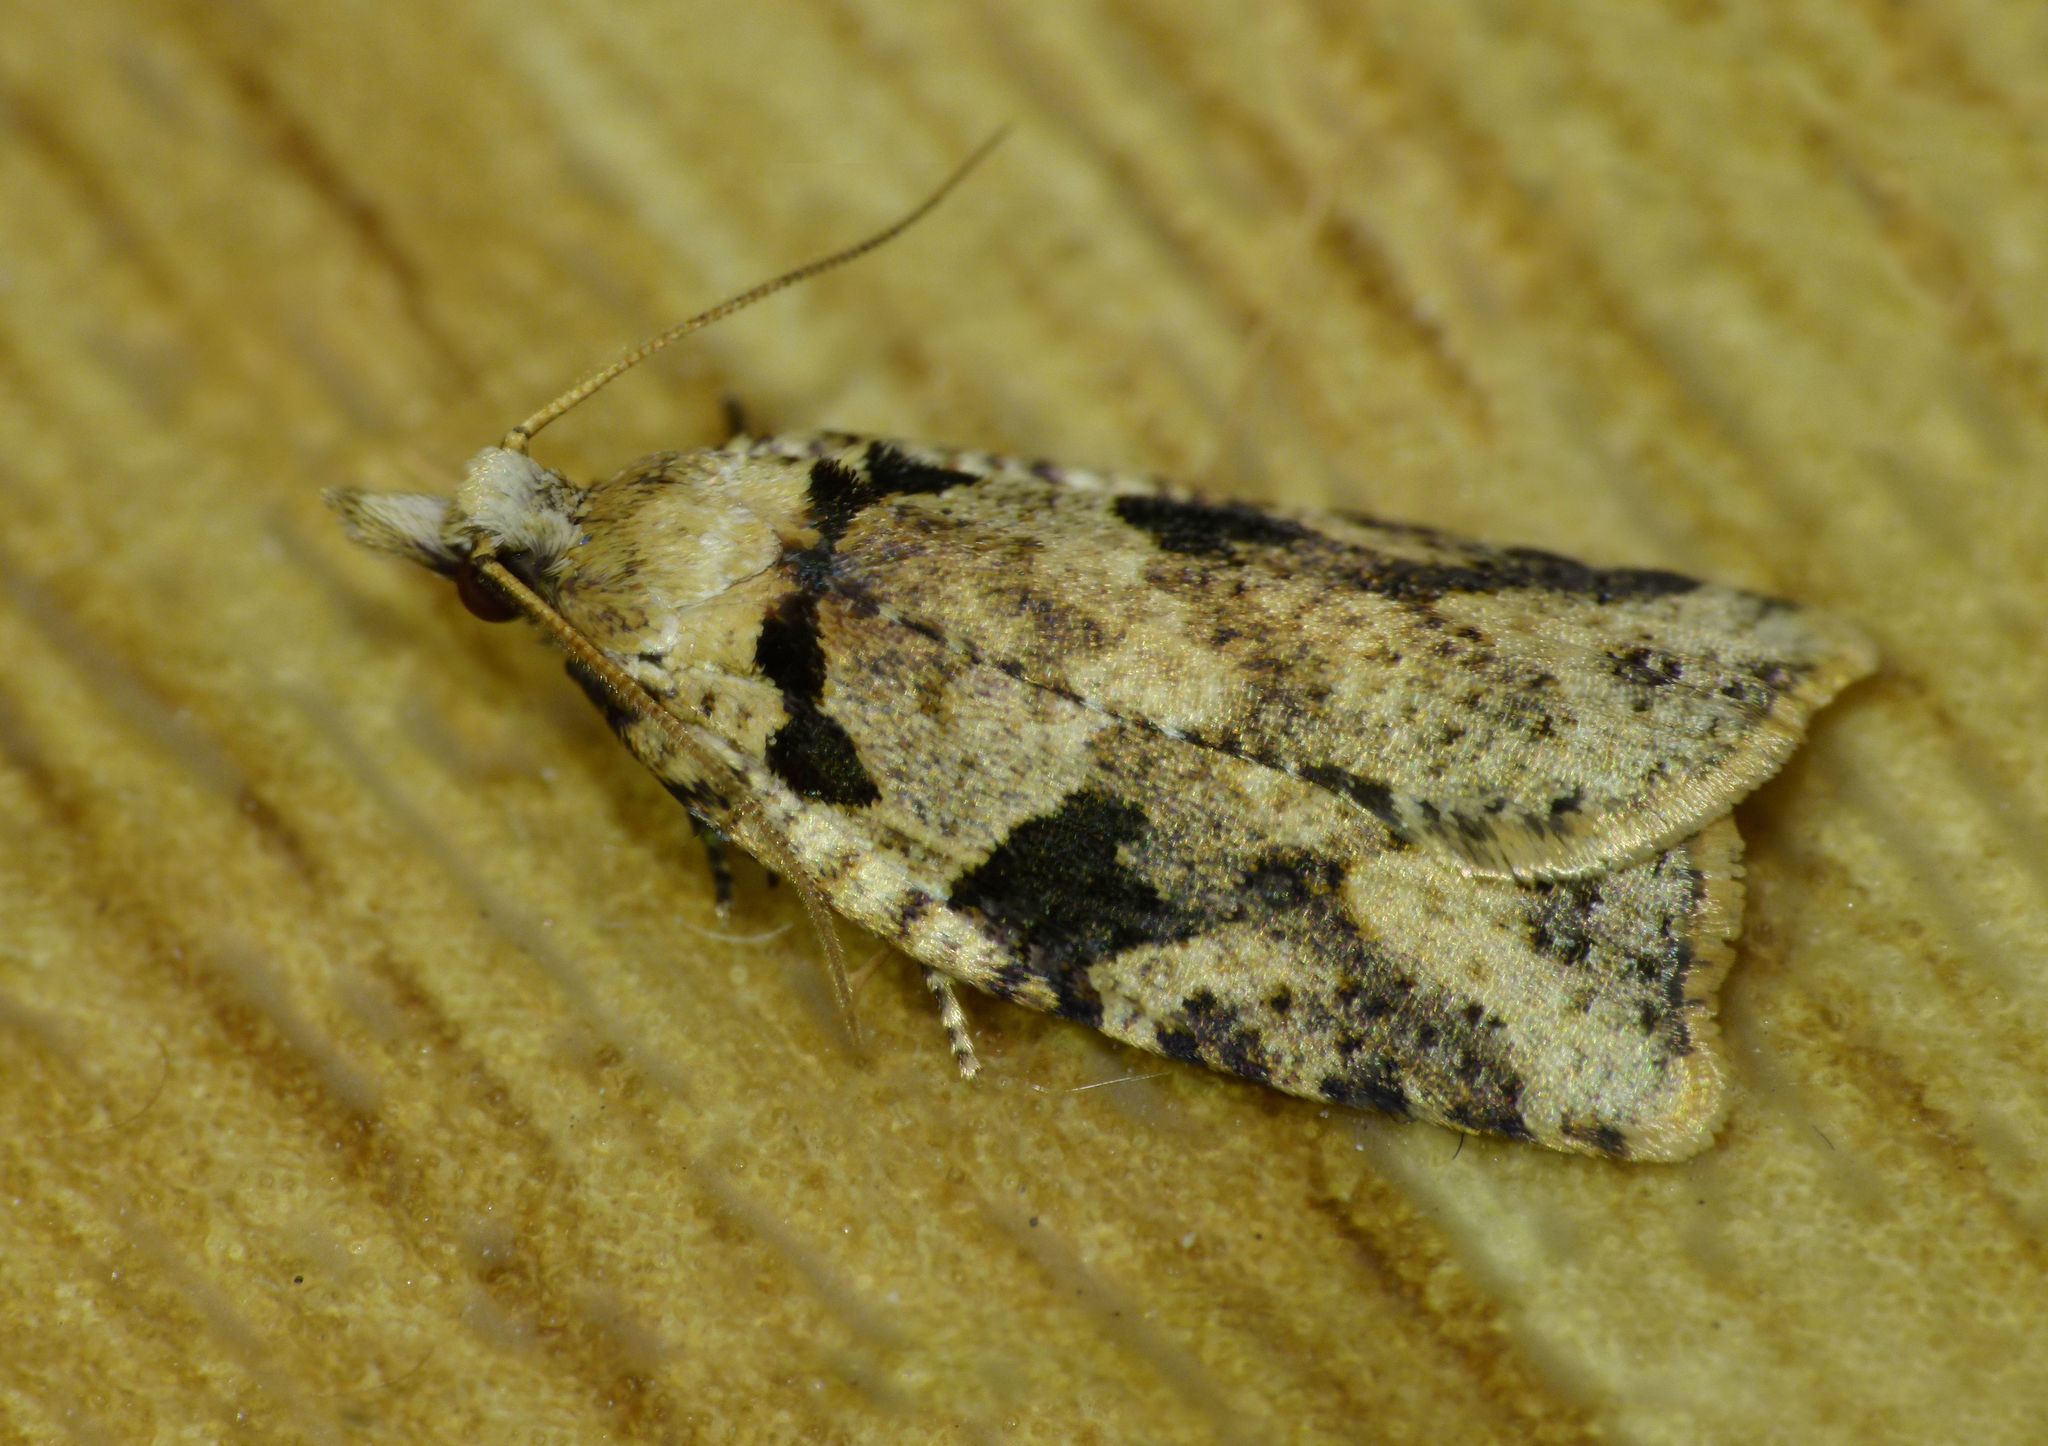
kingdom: Animalia
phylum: Arthropoda
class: Insecta
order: Lepidoptera
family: Tortricidae
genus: Ctenopseustis
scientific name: Ctenopseustis obliquana
